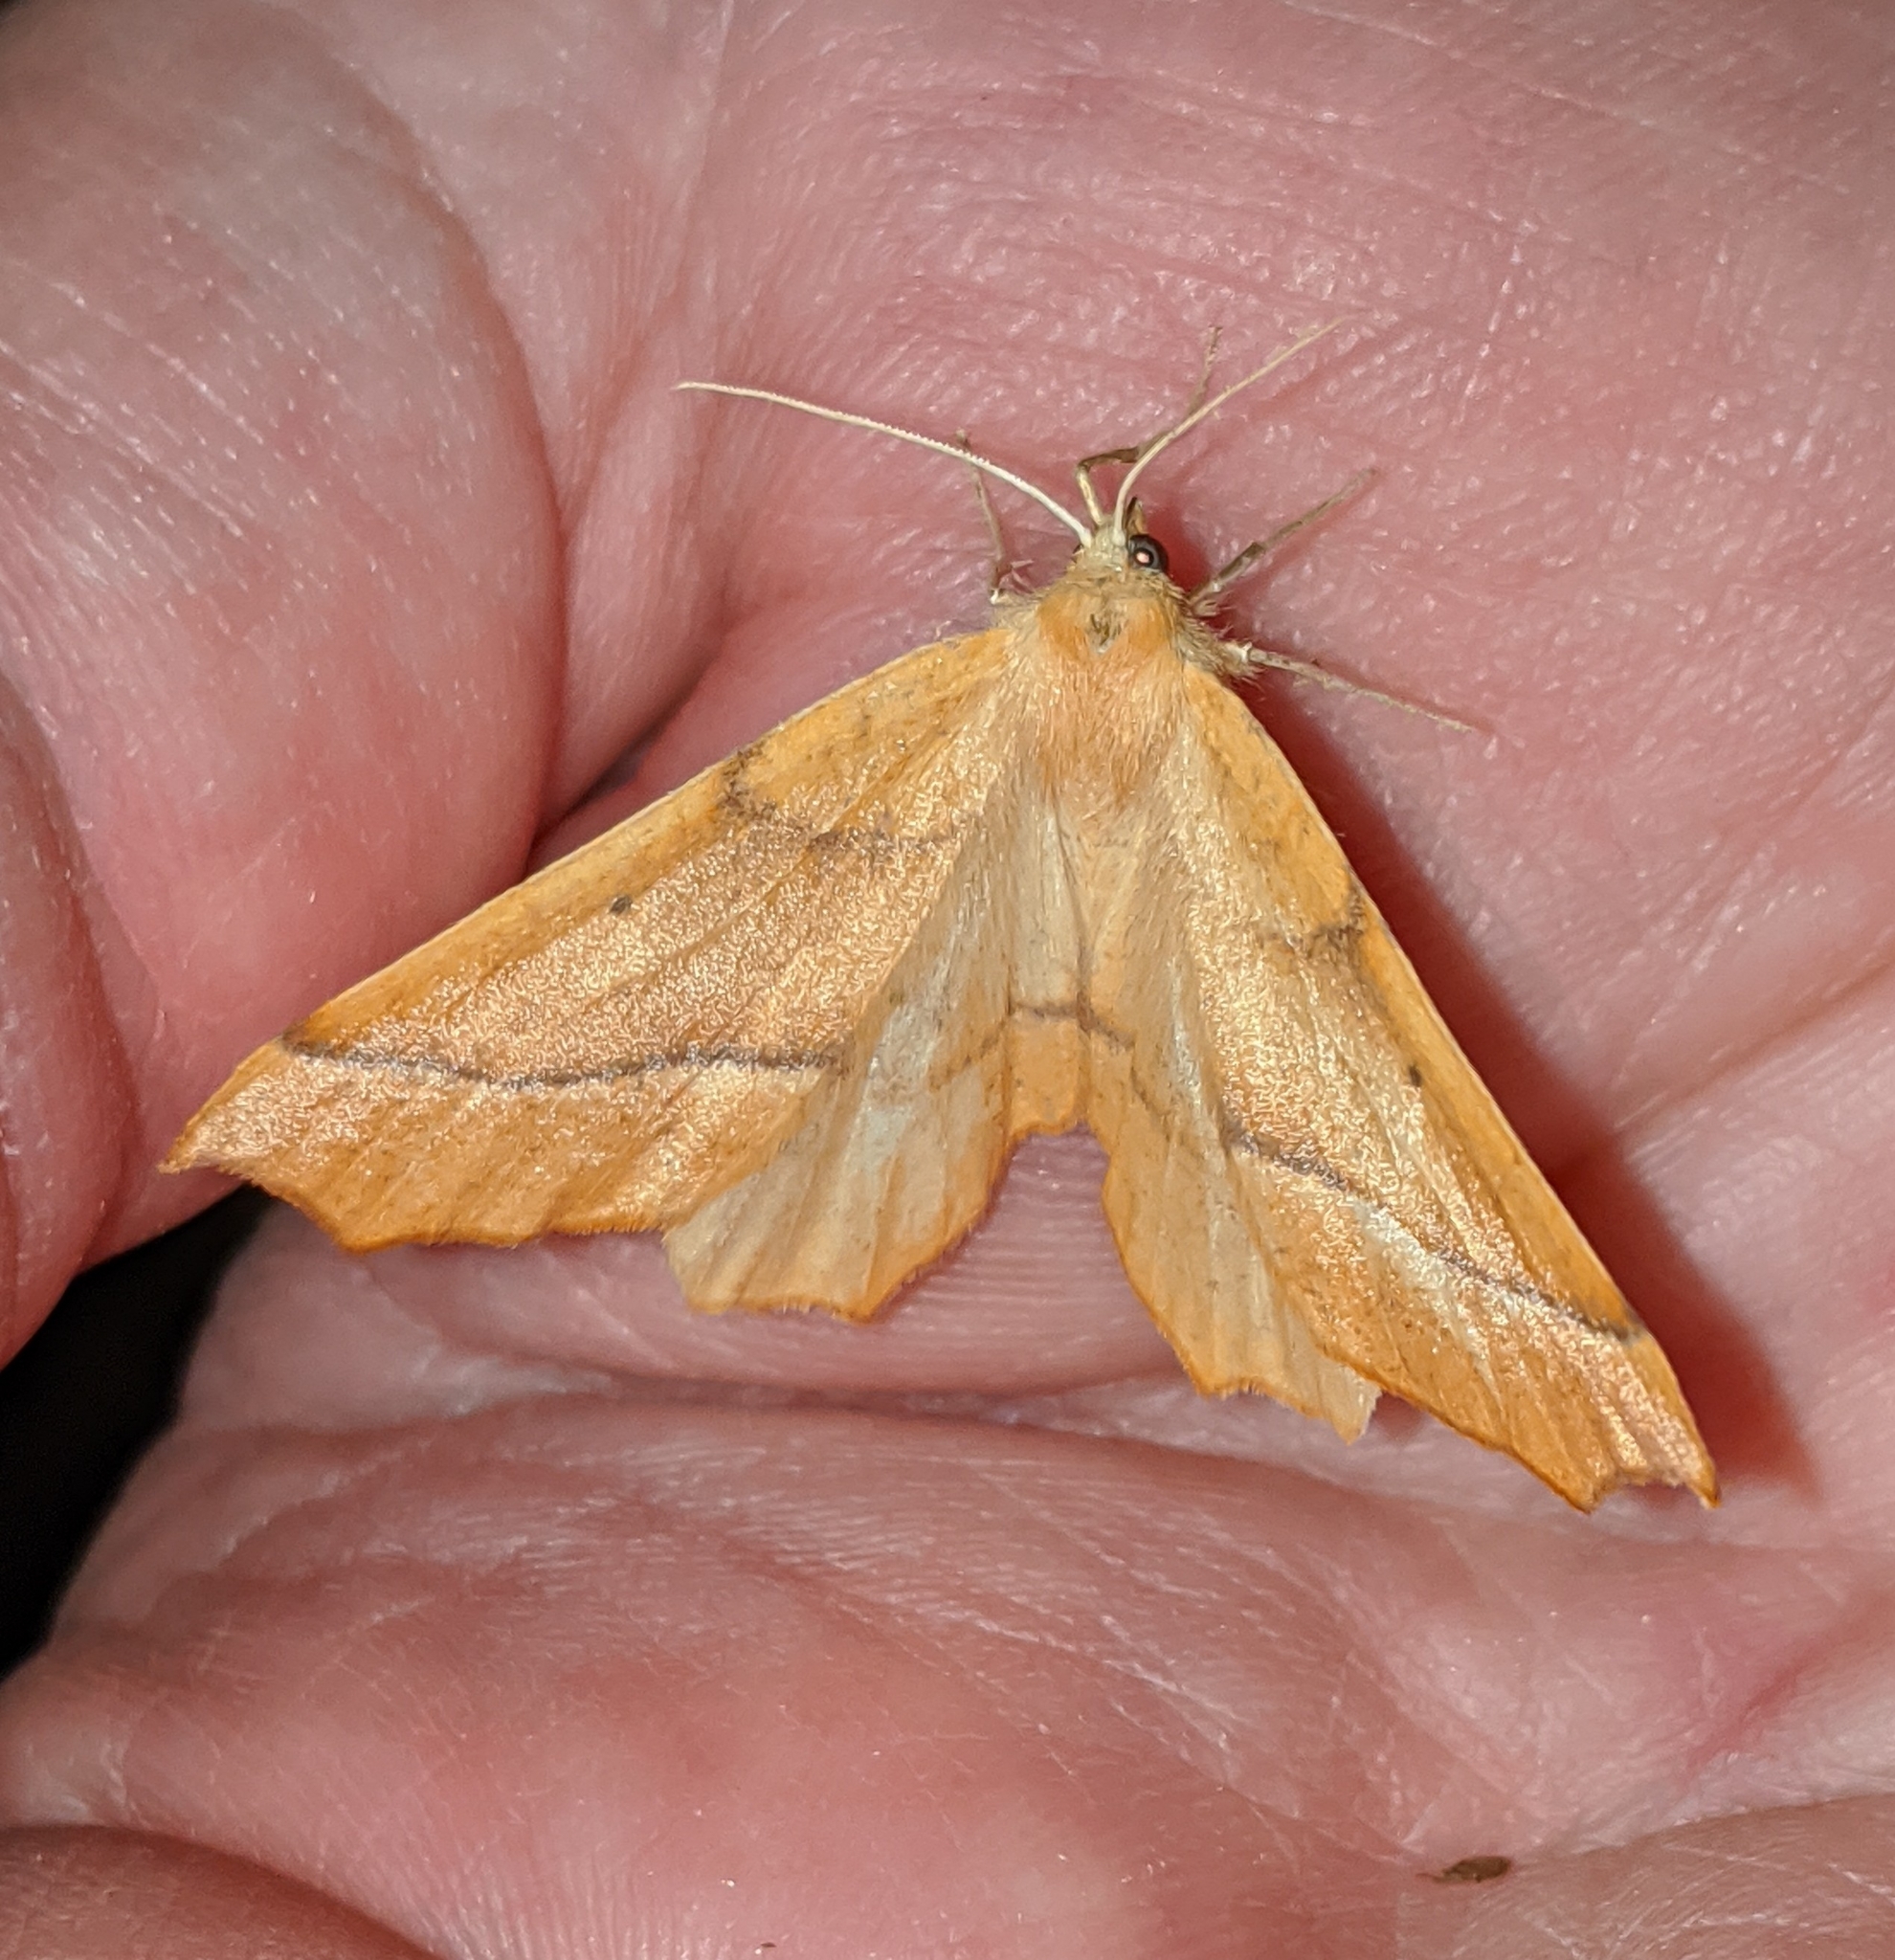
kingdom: Animalia
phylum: Arthropoda
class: Insecta
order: Lepidoptera
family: Geometridae
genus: Synaxis
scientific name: Synaxis jubararia
